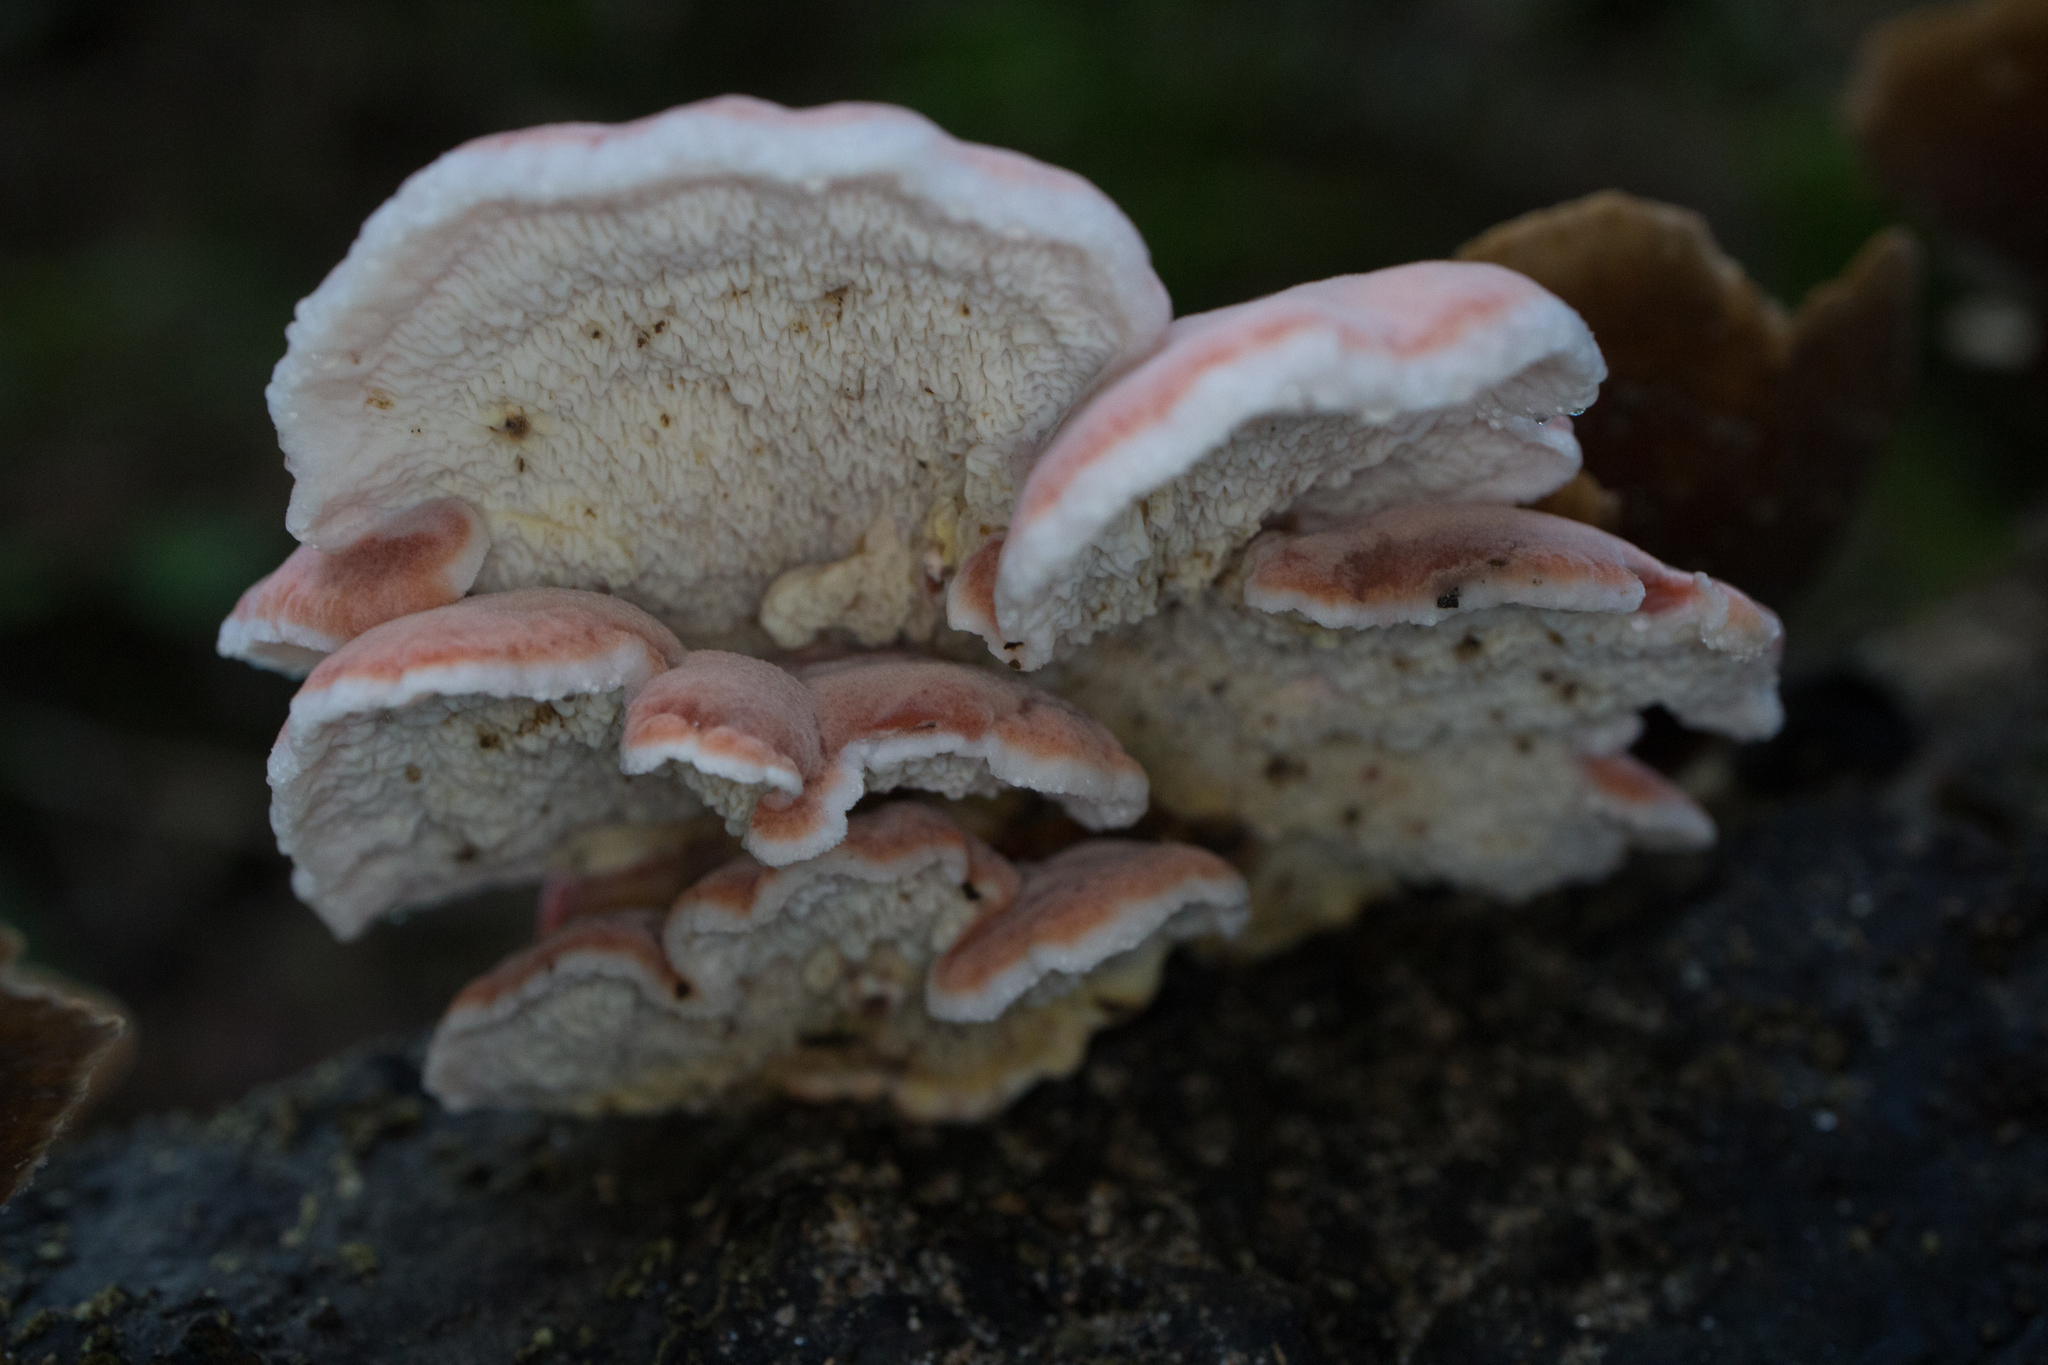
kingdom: Fungi
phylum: Basidiomycota
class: Agaricomycetes
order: Polyporales
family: Irpicaceae
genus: Byssomerulius
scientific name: Byssomerulius incarnatus
